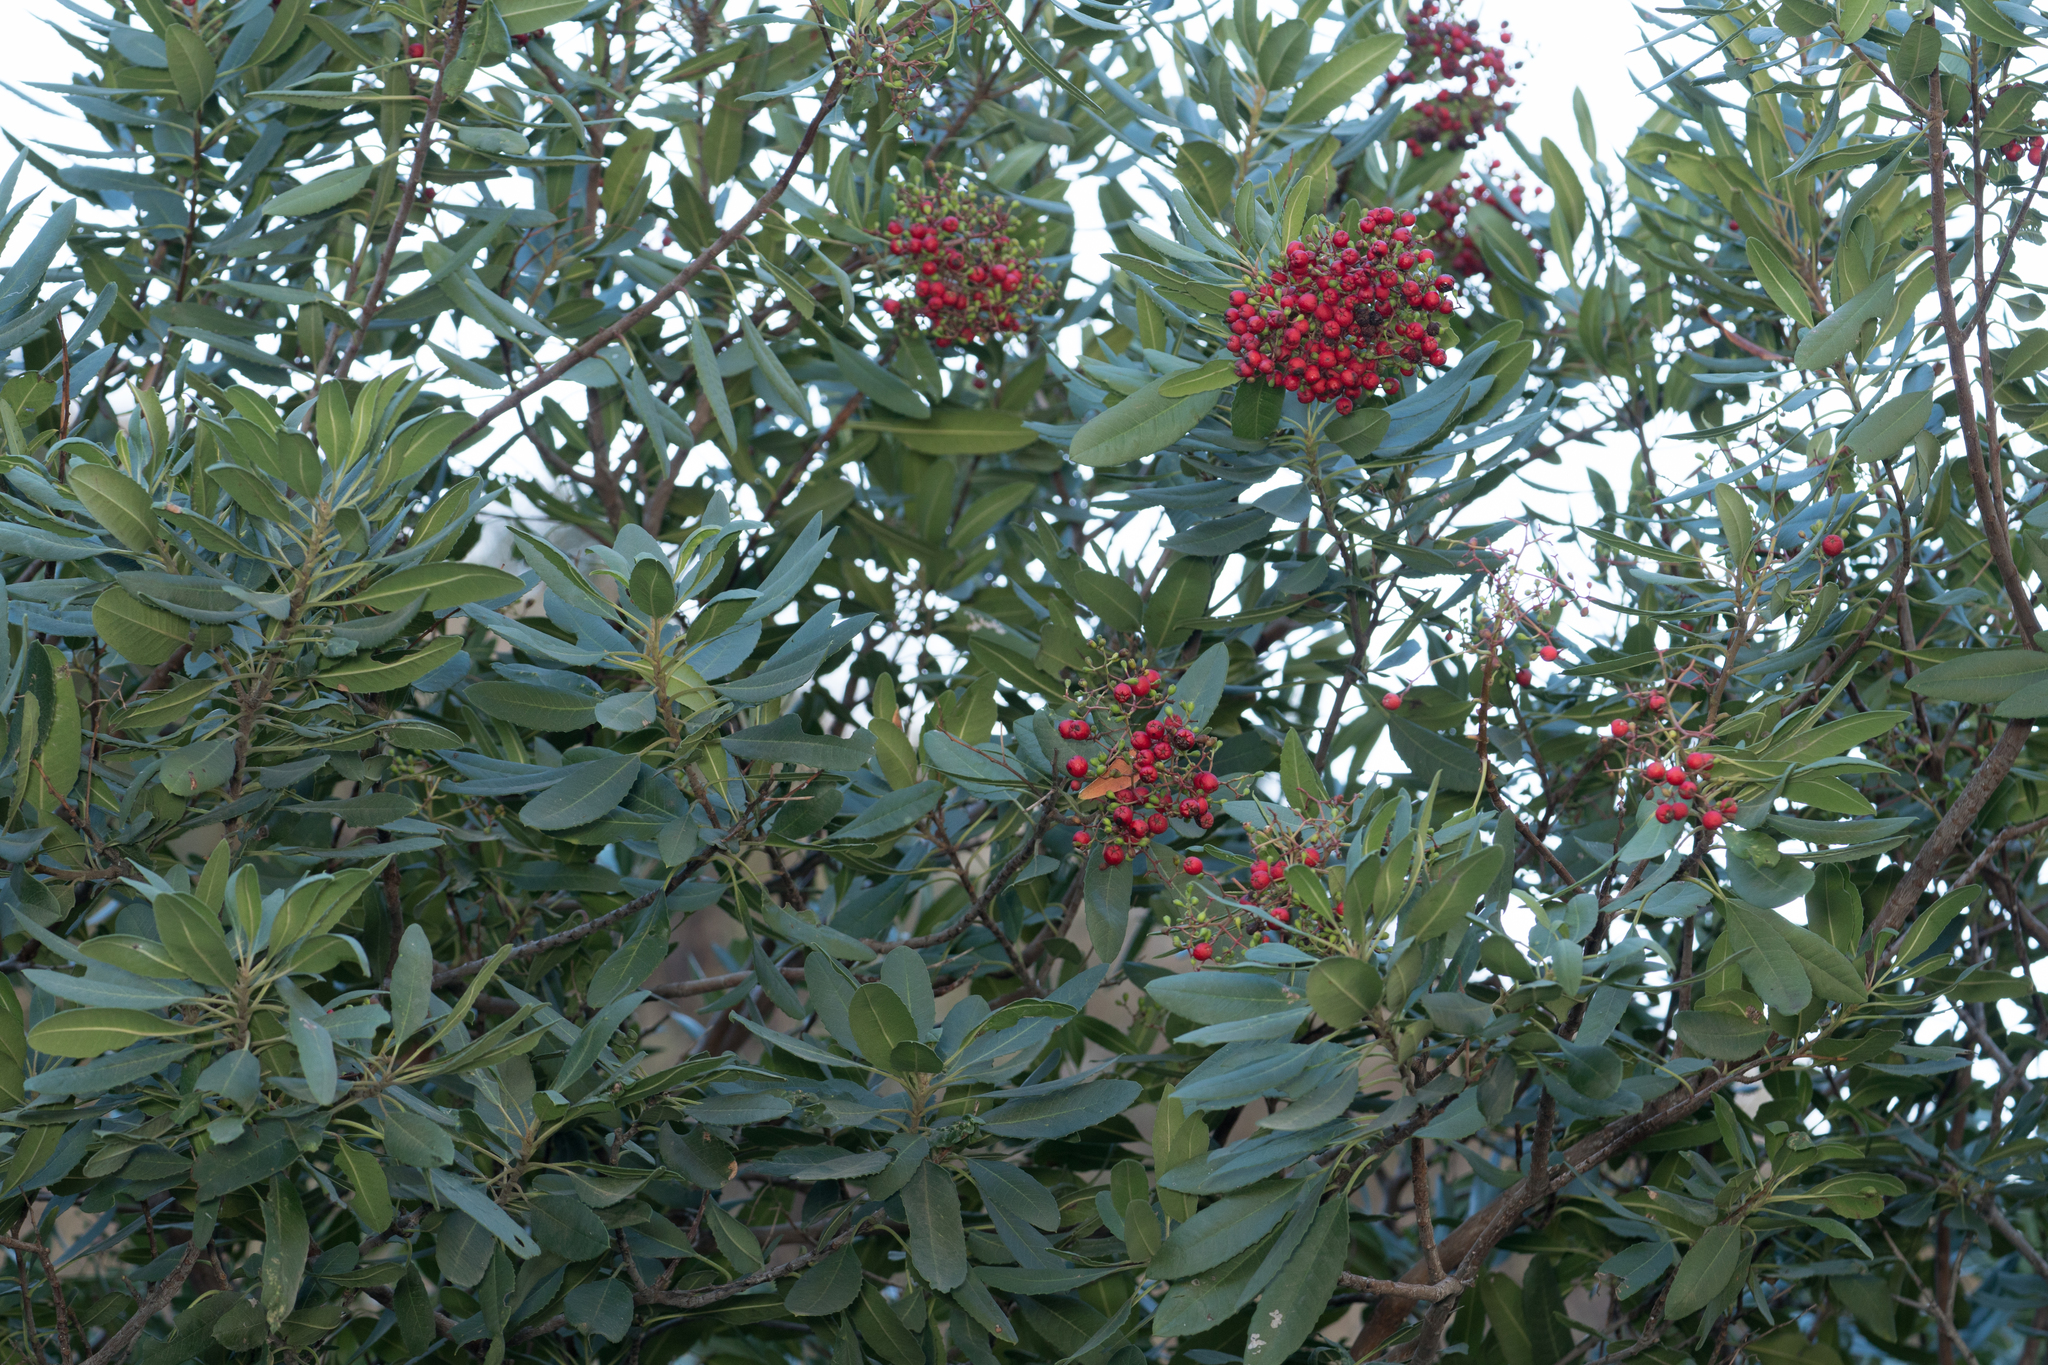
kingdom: Plantae
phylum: Tracheophyta
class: Magnoliopsida
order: Rosales
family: Rosaceae
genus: Heteromeles
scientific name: Heteromeles arbutifolia
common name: California-holly
